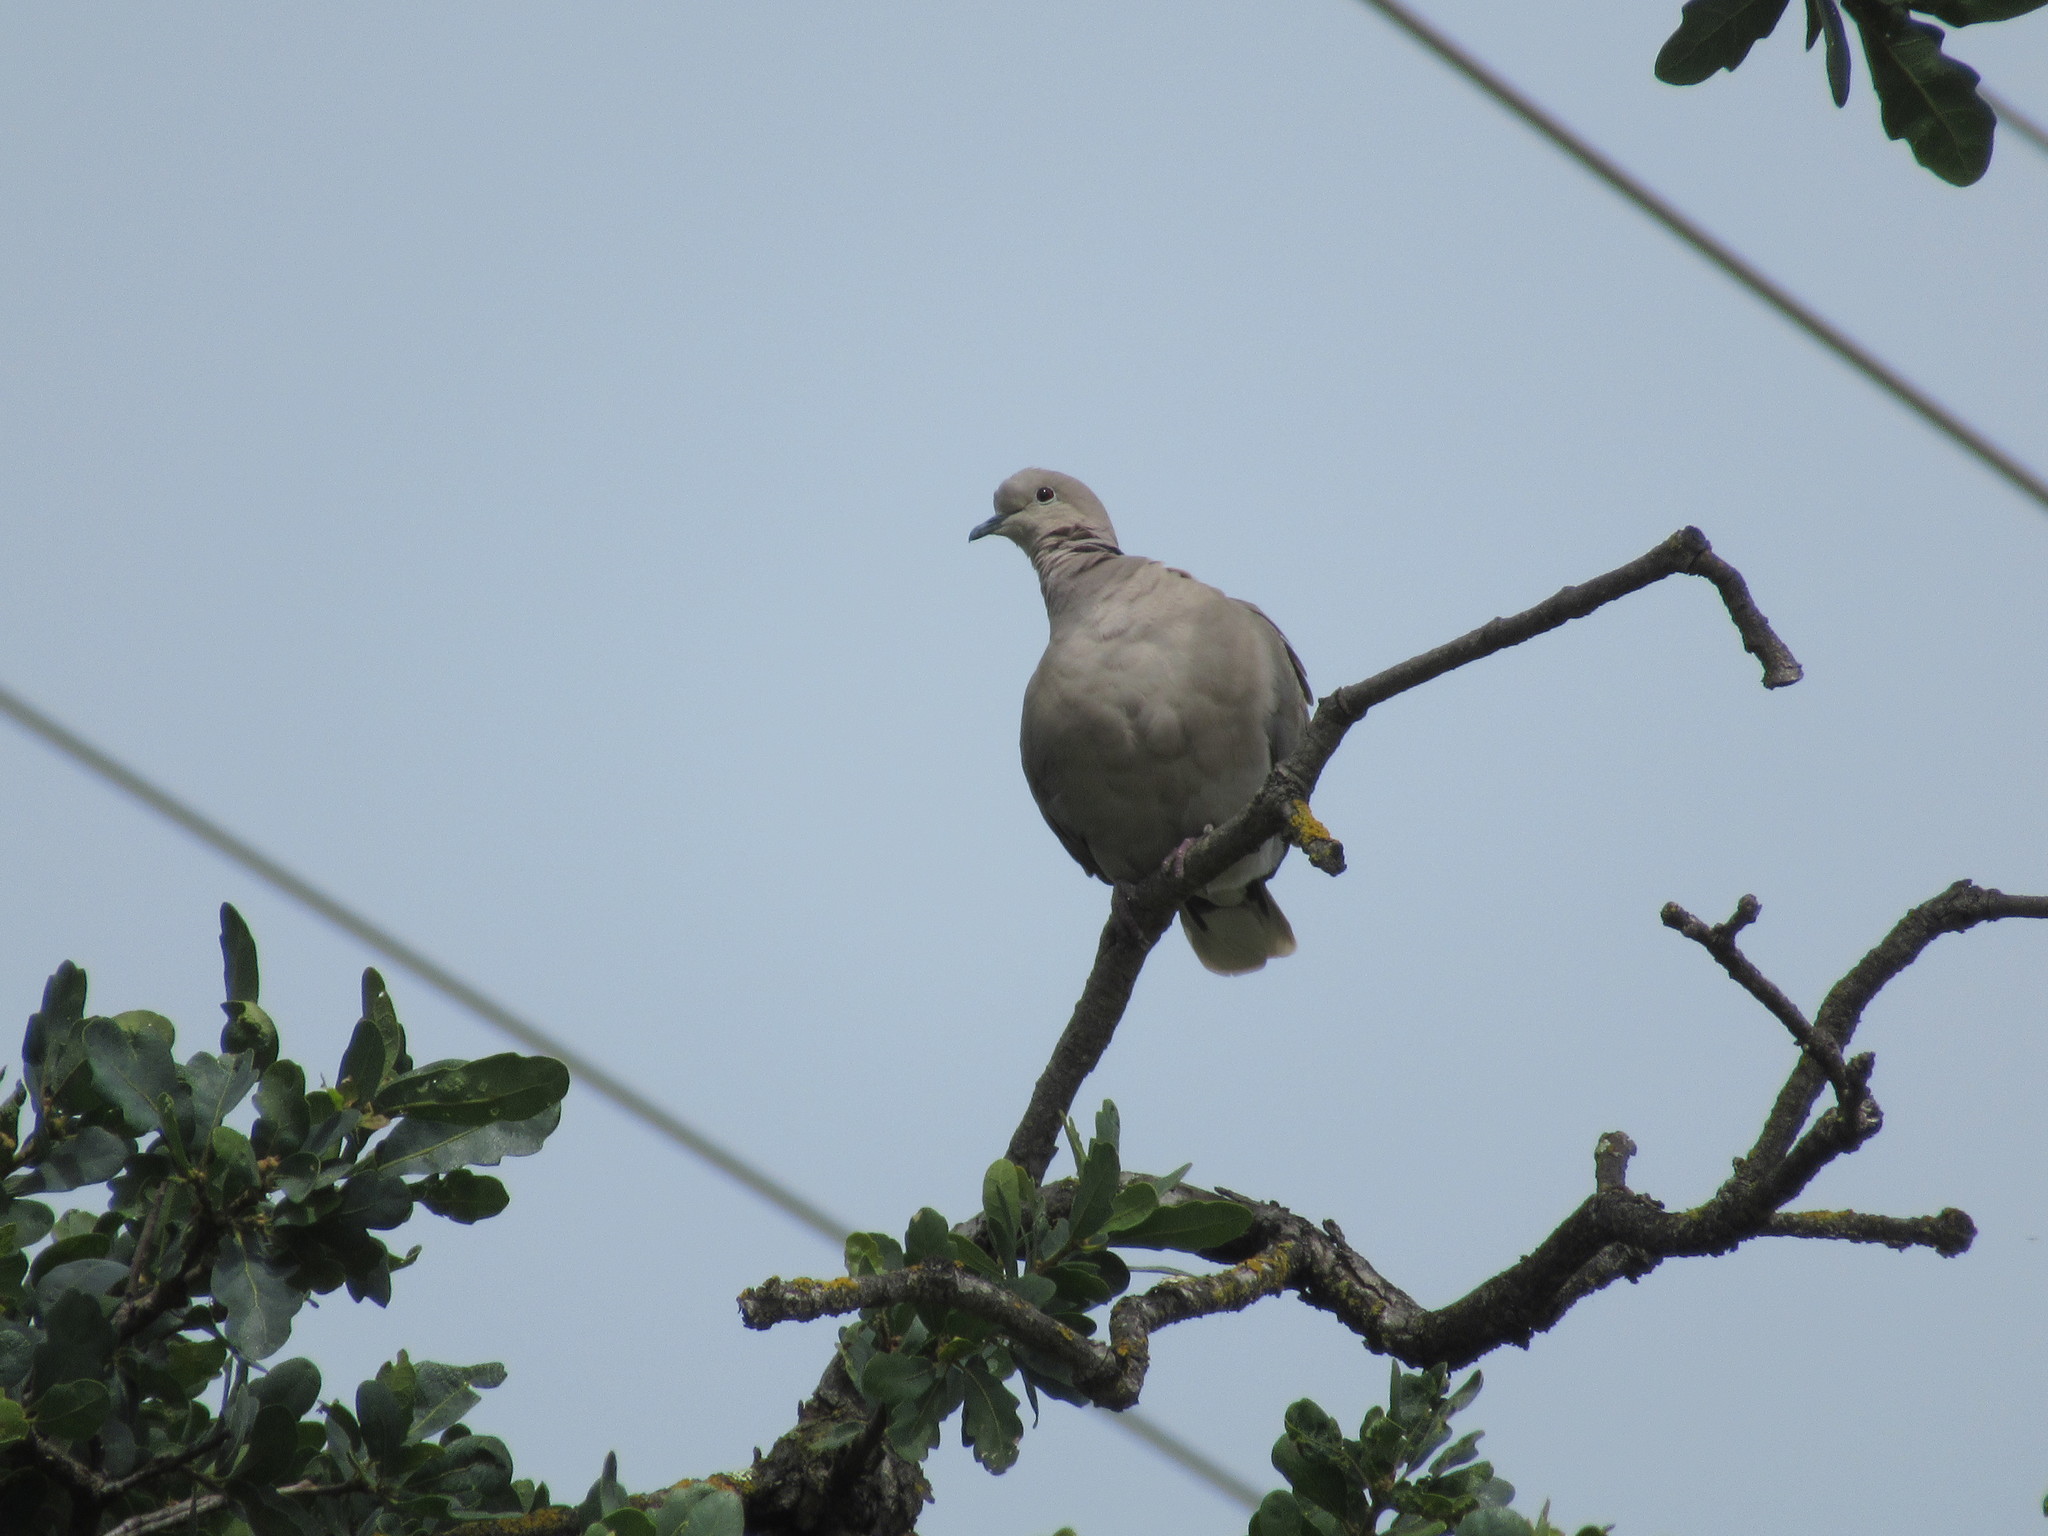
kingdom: Animalia
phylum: Chordata
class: Aves
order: Columbiformes
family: Columbidae
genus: Streptopelia
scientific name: Streptopelia decaocto
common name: Eurasian collared dove
